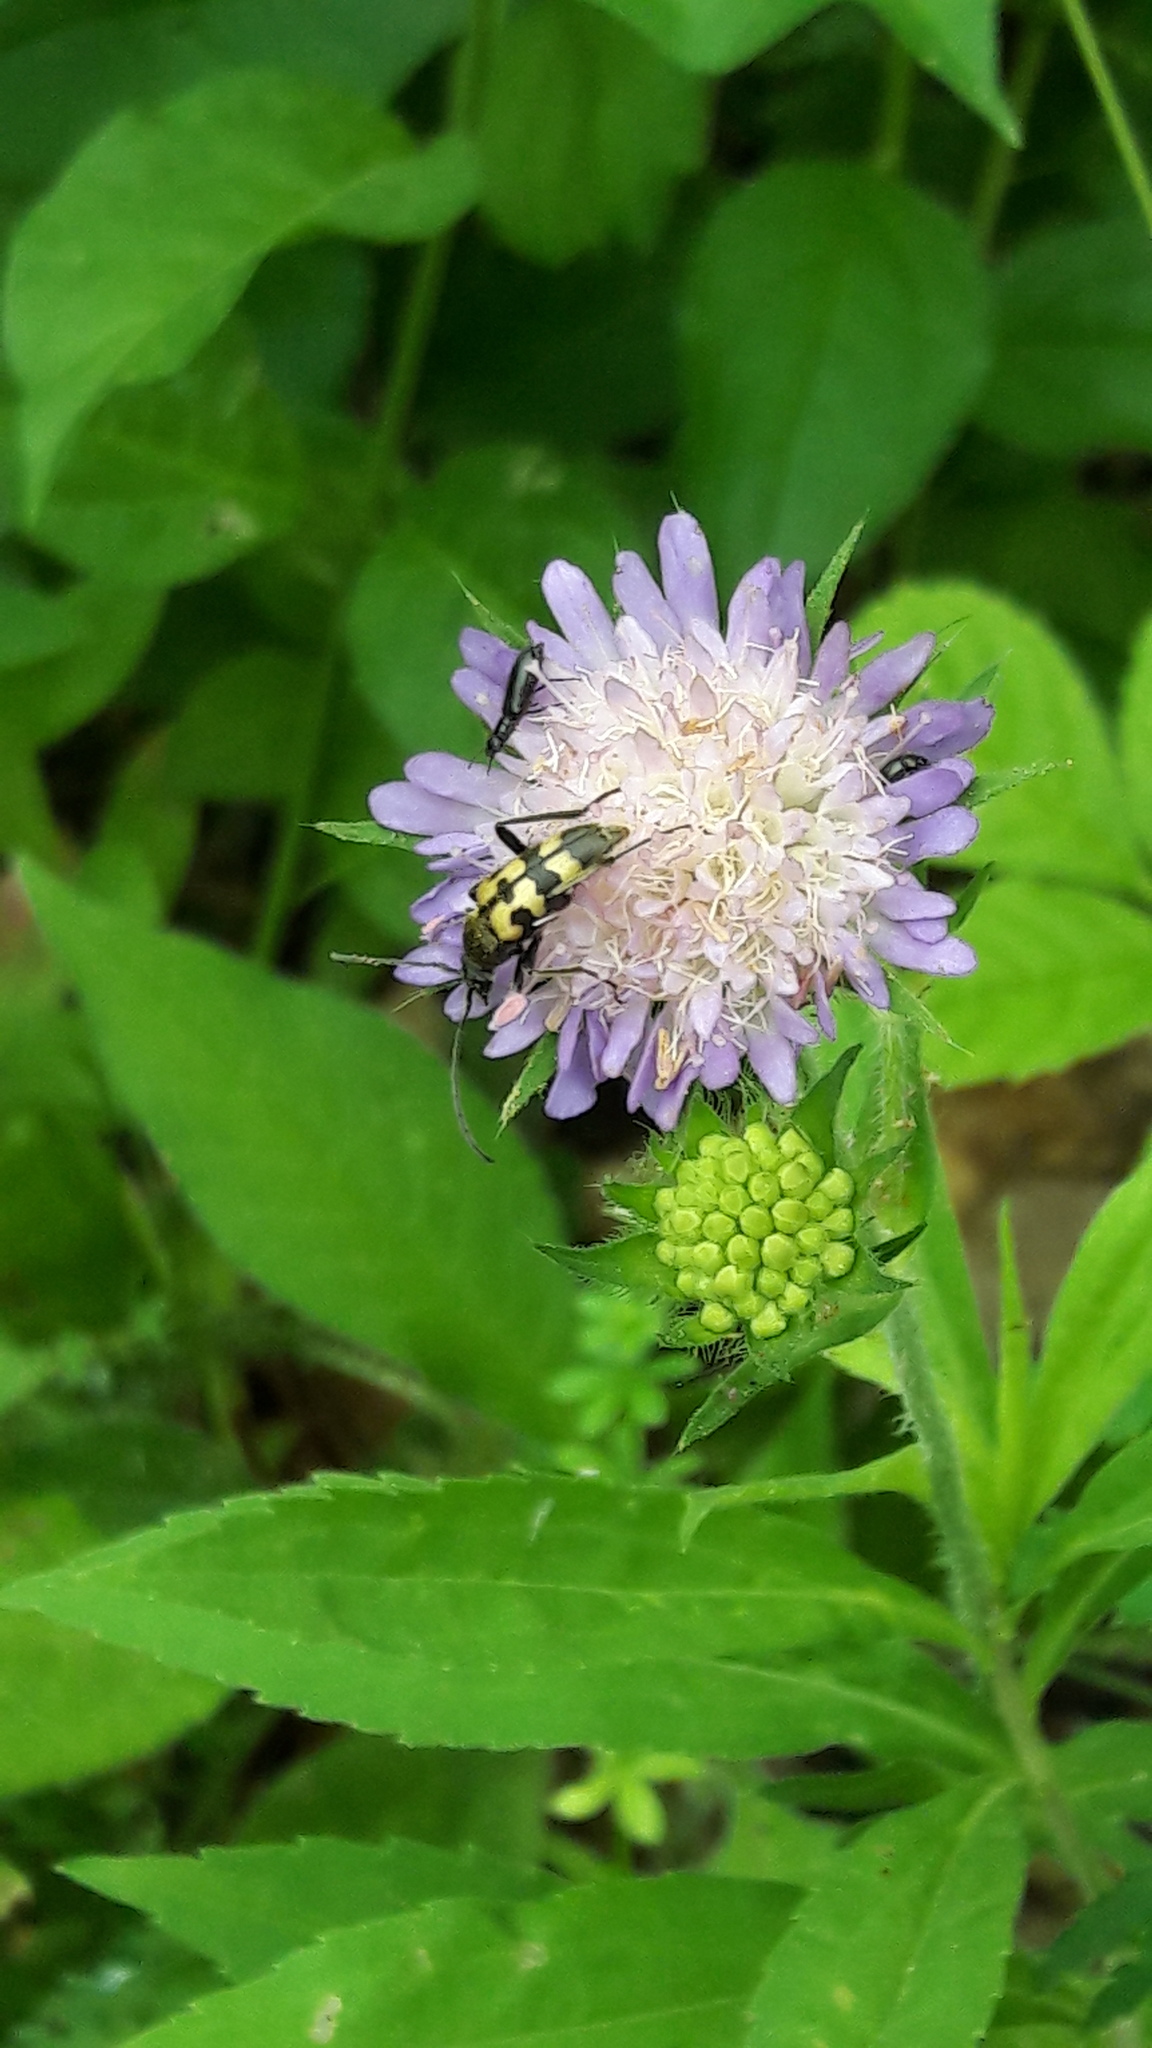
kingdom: Animalia
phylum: Arthropoda
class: Insecta
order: Coleoptera
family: Cerambycidae
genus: Pachytodes
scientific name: Pachytodes
